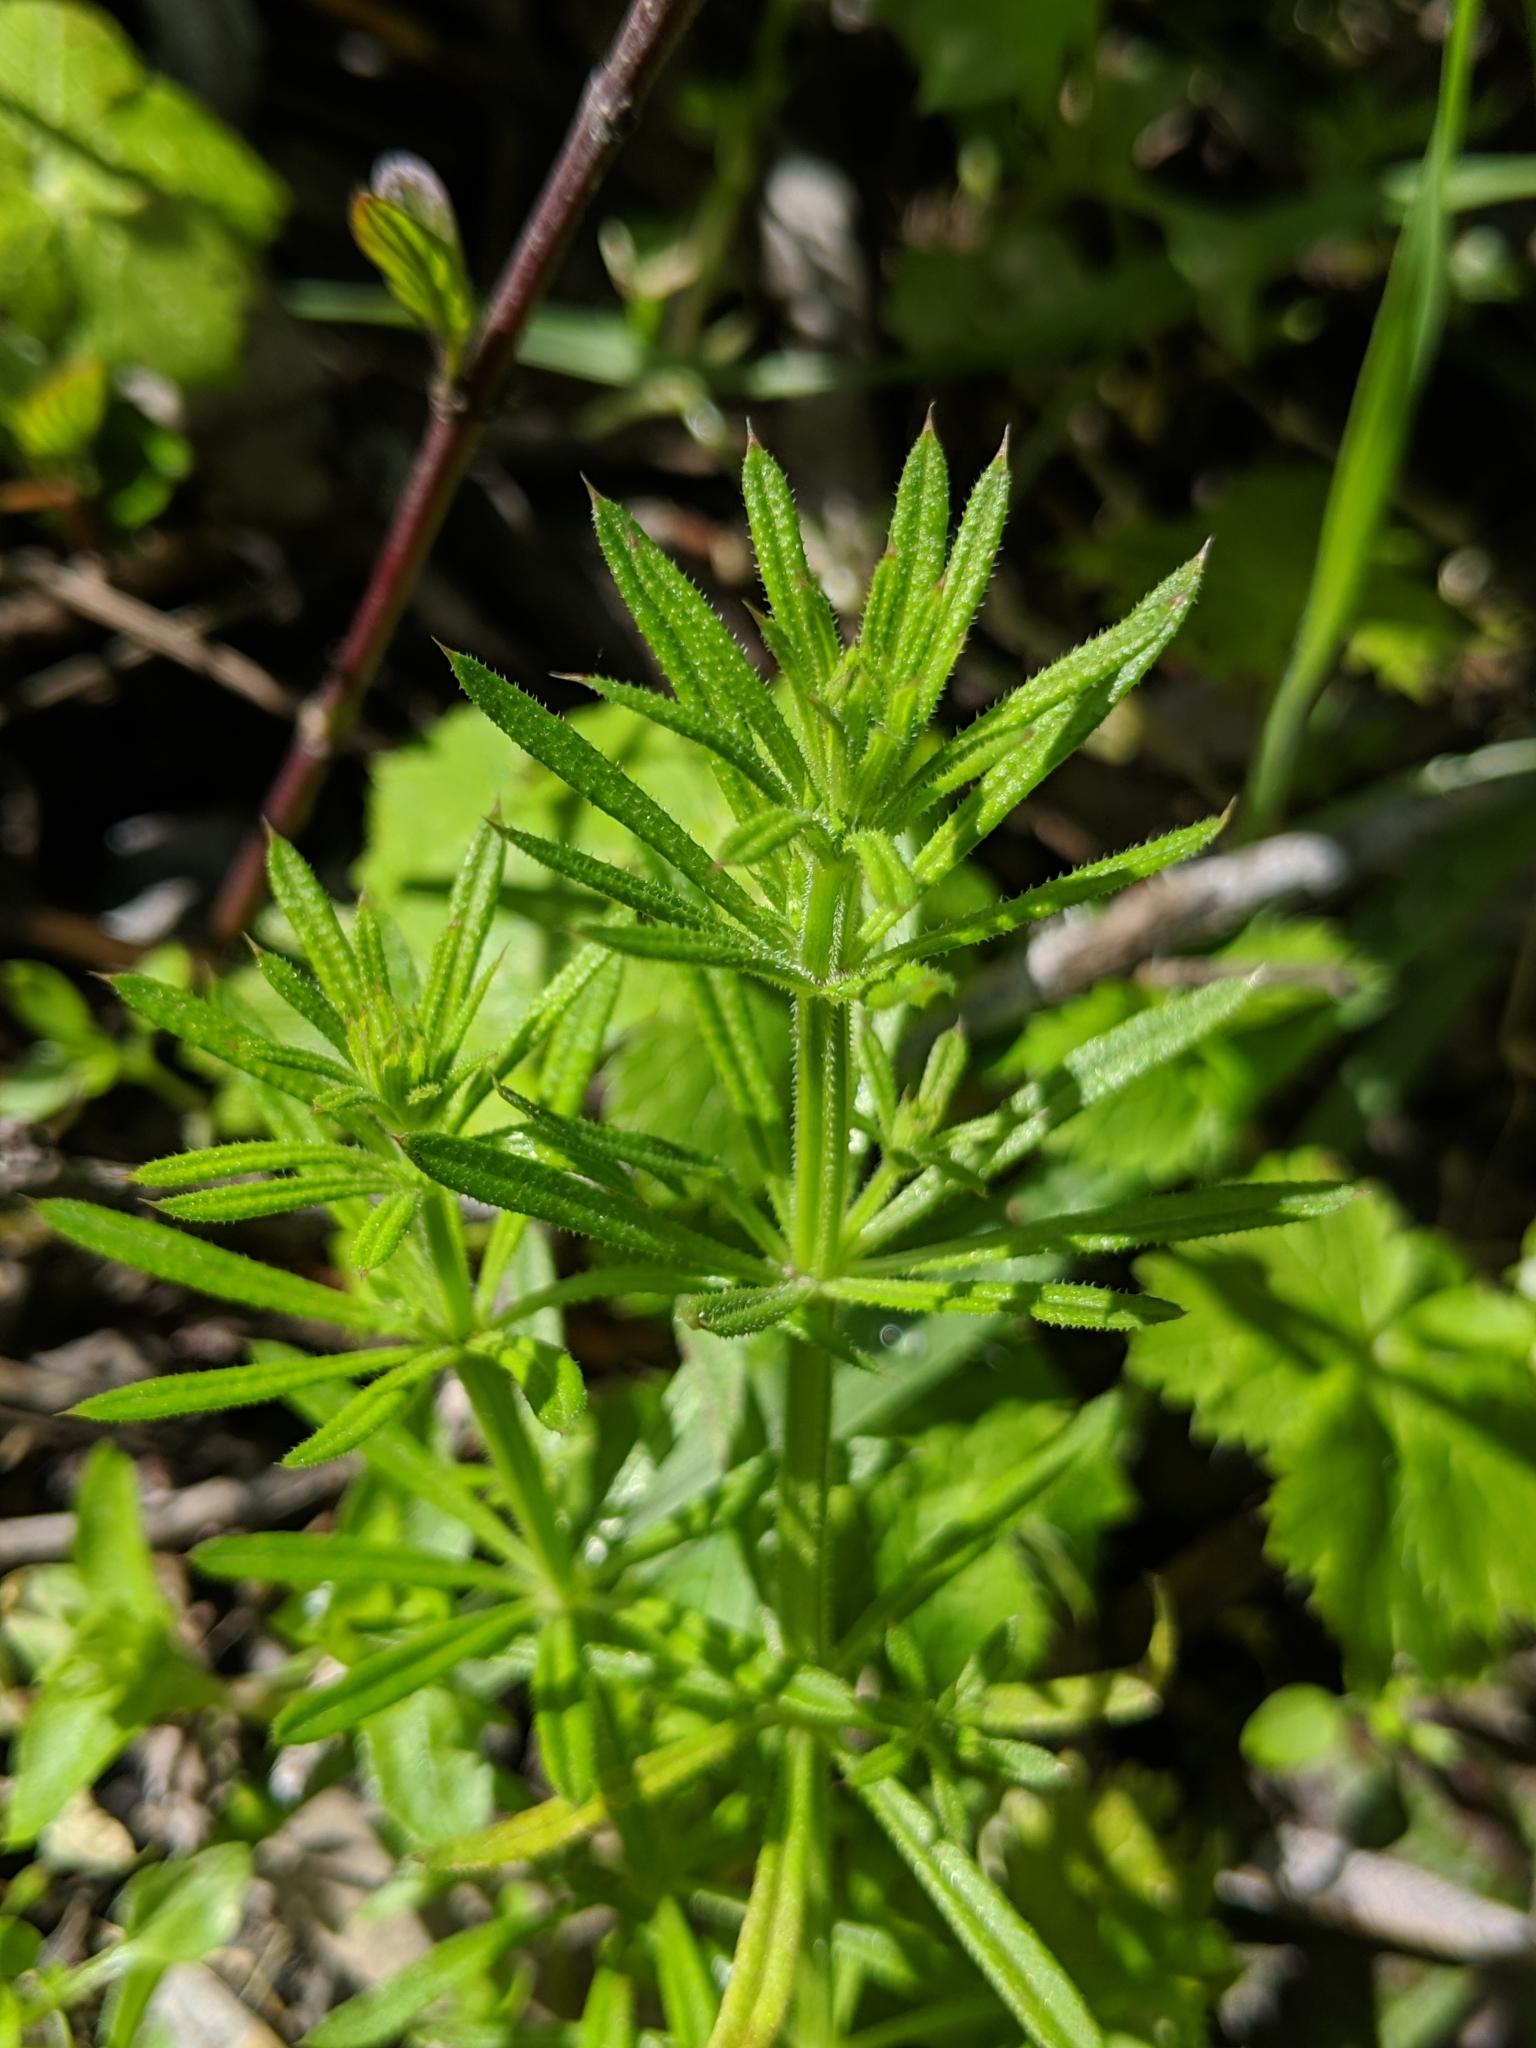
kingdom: Plantae
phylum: Tracheophyta
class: Magnoliopsida
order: Gentianales
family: Rubiaceae
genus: Galium
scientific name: Galium aparine
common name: Cleavers
